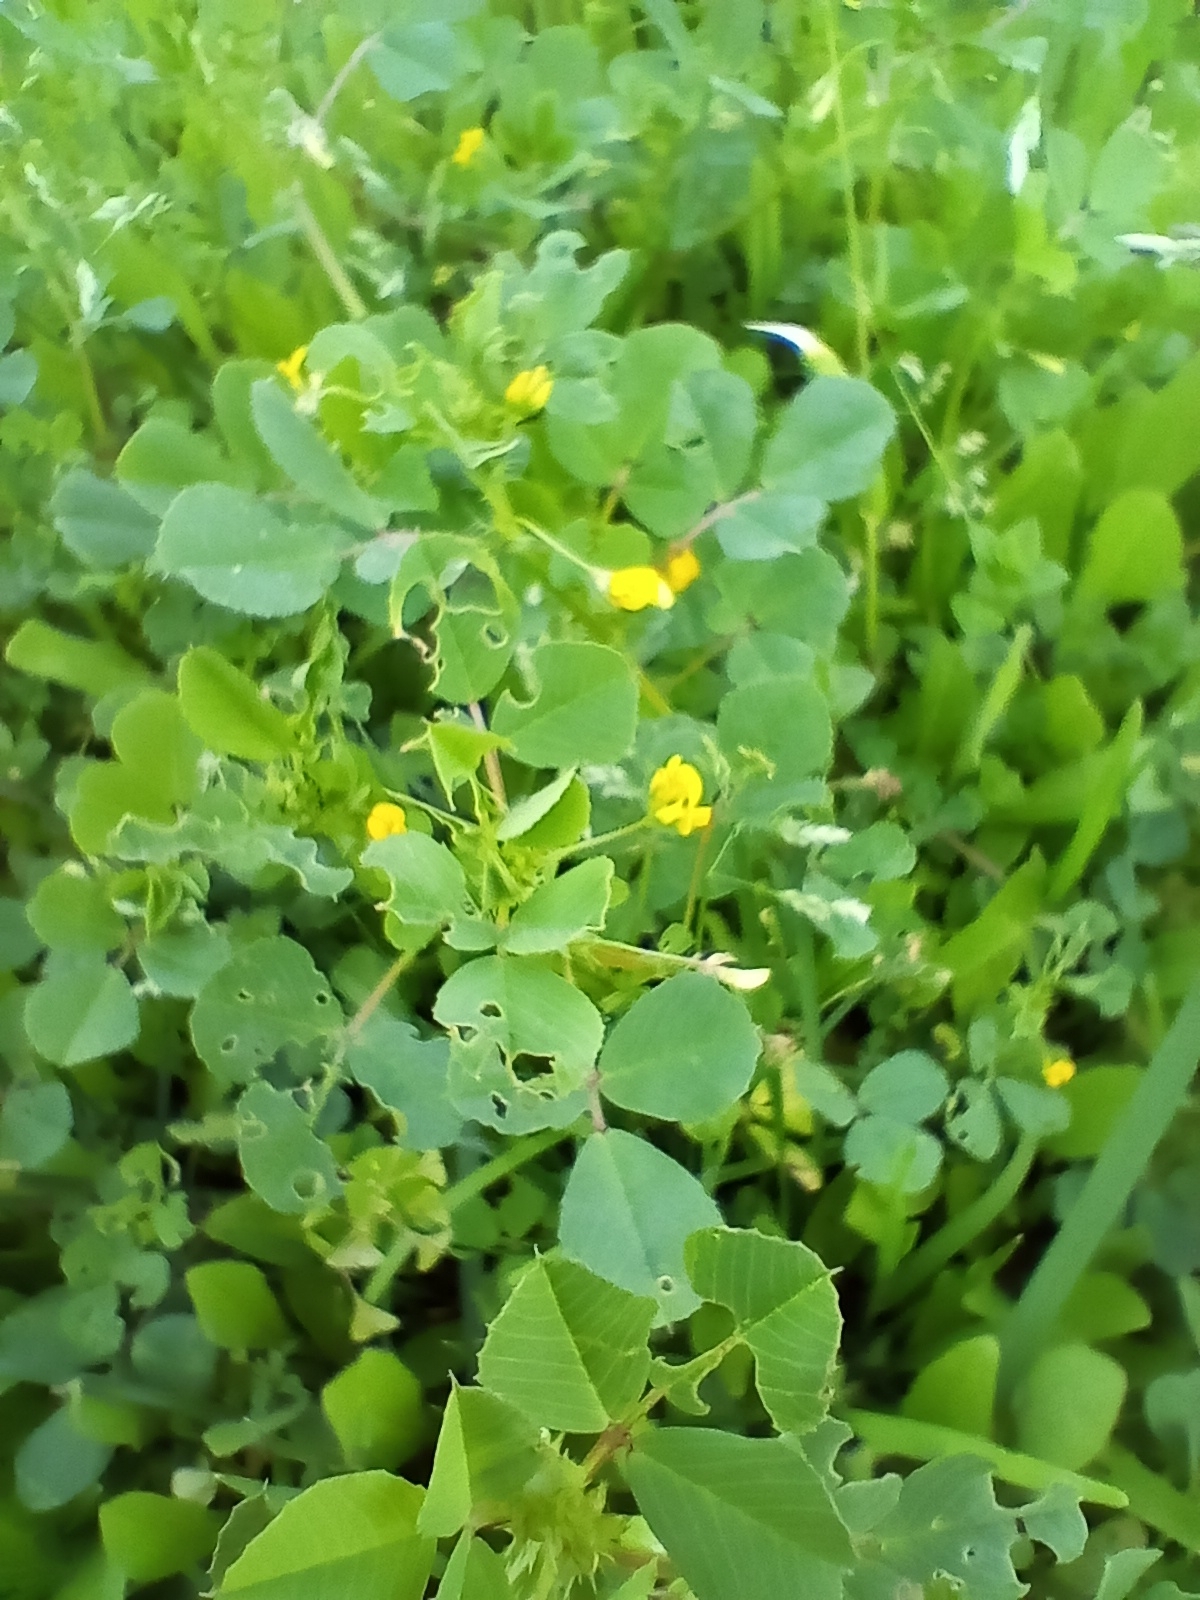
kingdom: Plantae
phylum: Tracheophyta
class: Magnoliopsida
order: Fabales
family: Fabaceae
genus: Medicago
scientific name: Medicago polymorpha
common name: Burclover
